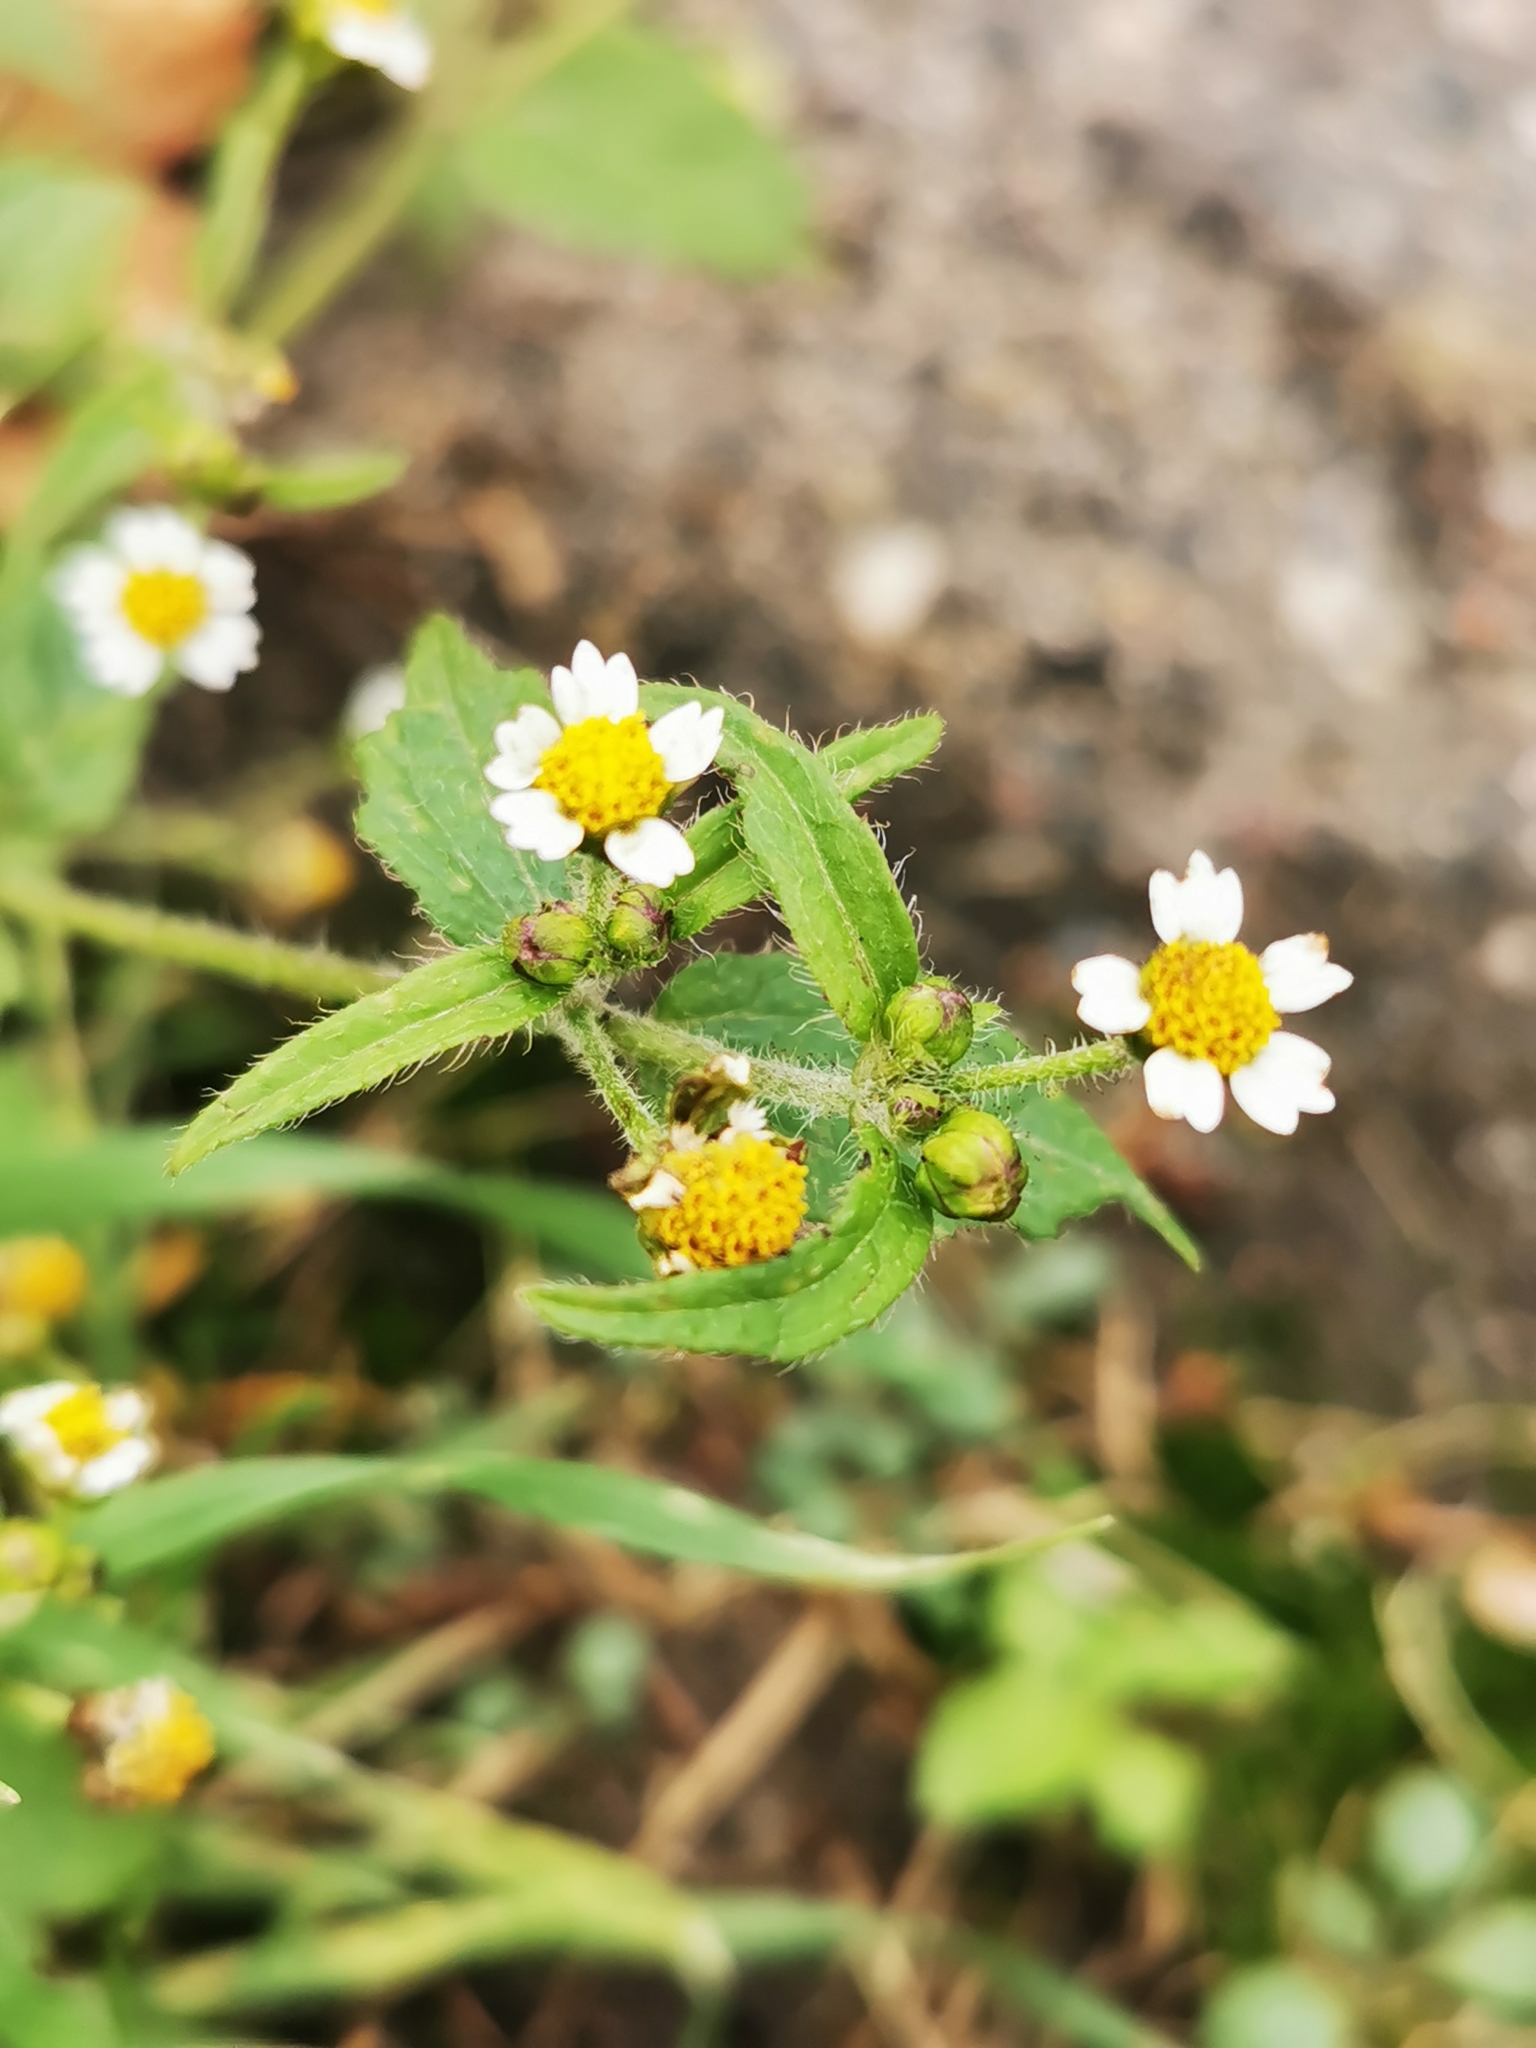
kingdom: Plantae
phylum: Tracheophyta
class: Magnoliopsida
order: Asterales
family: Asteraceae
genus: Galinsoga
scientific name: Galinsoga quadriradiata
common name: Shaggy soldier
